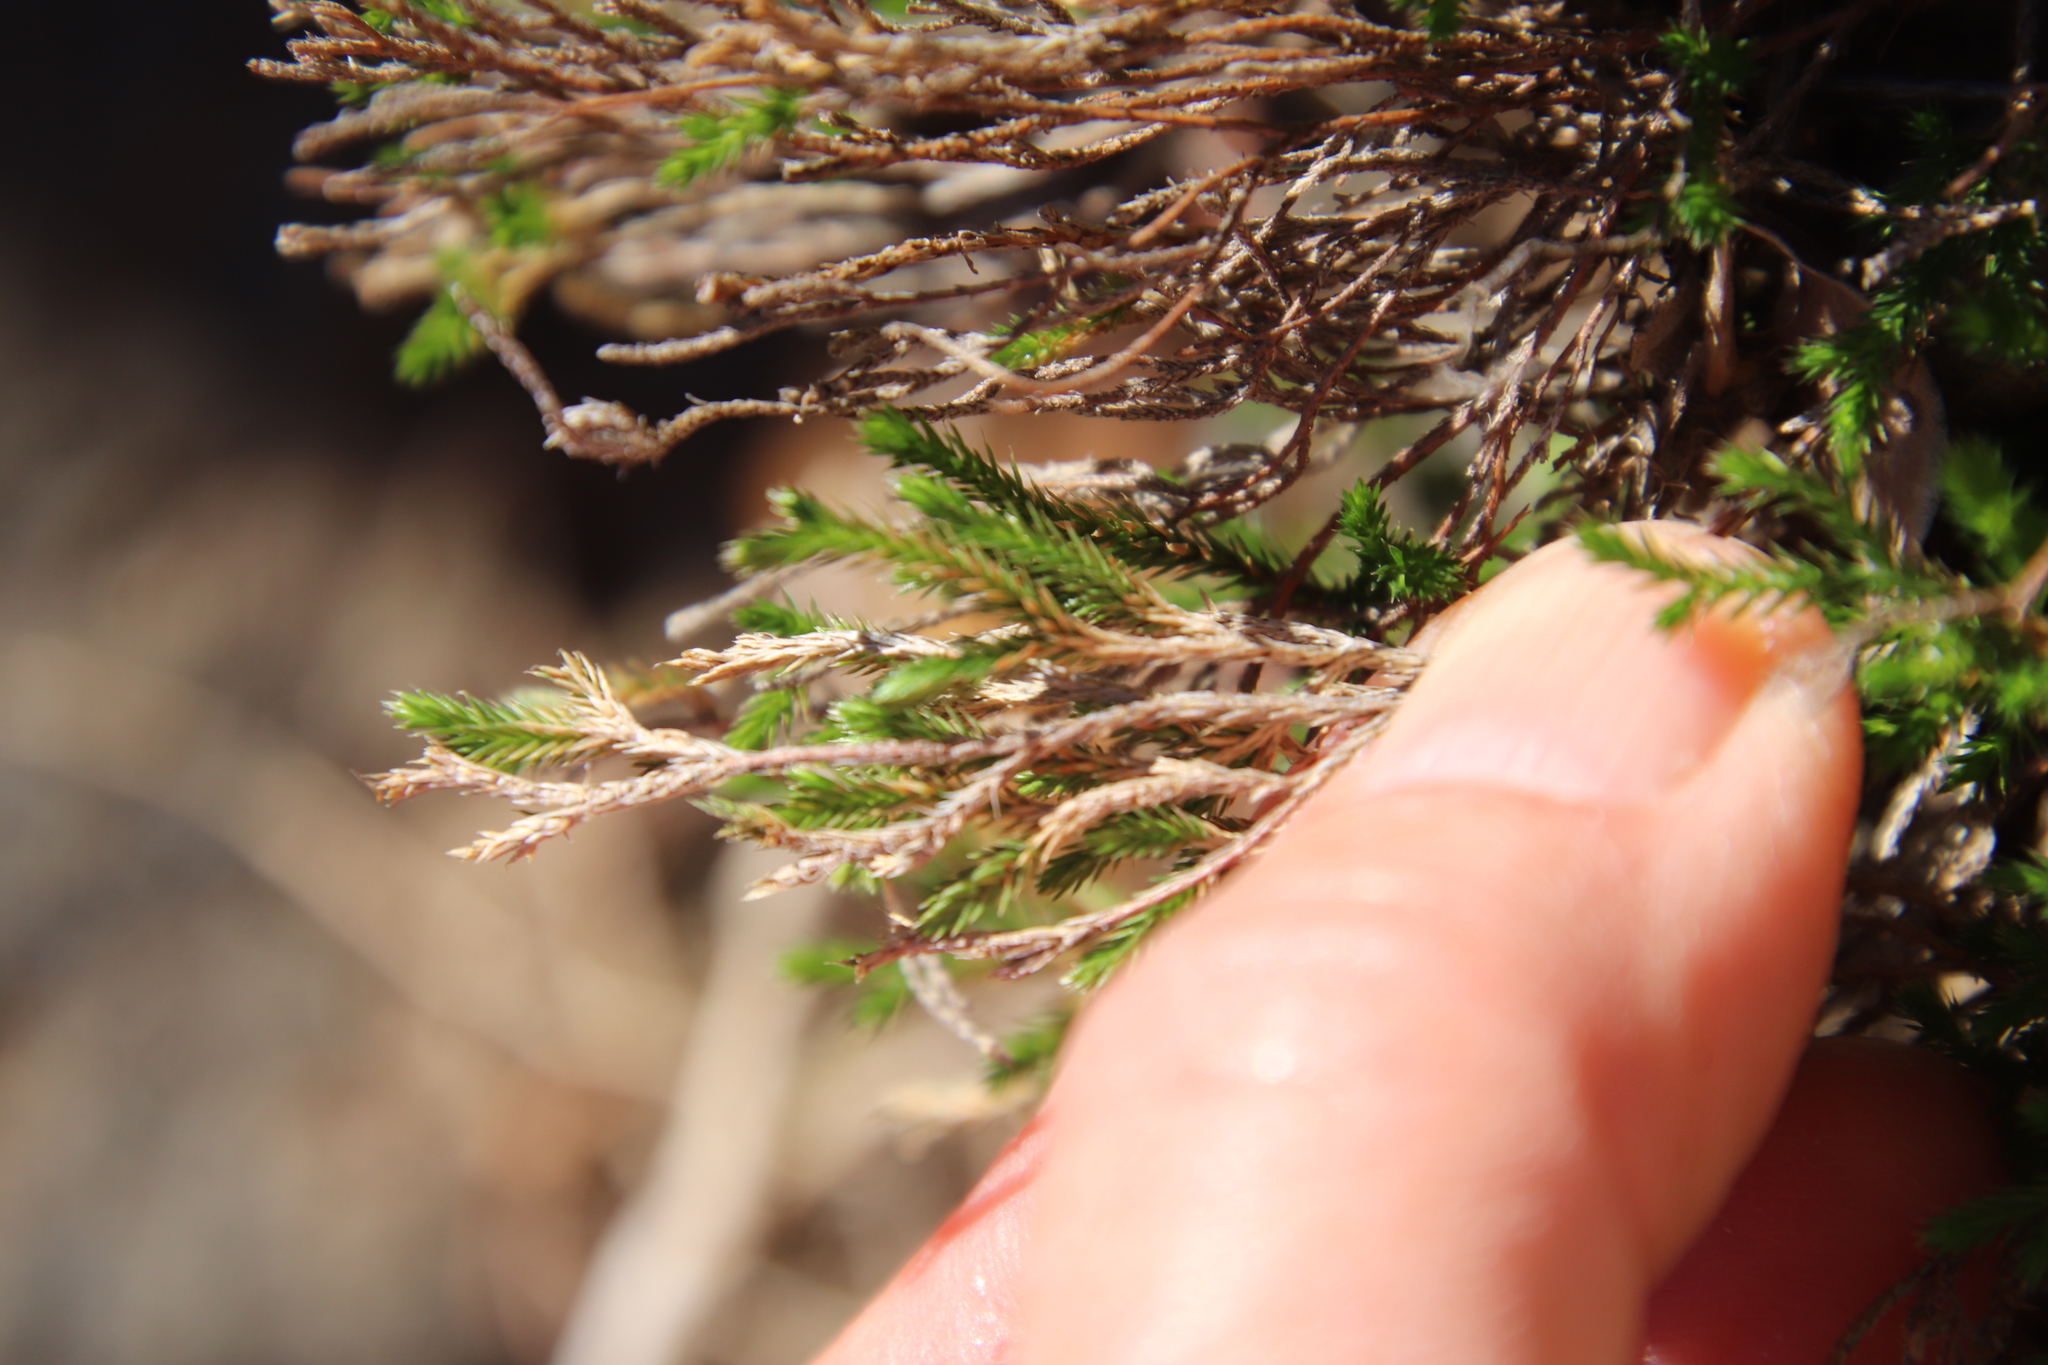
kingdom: Plantae
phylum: Tracheophyta
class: Lycopodiopsida
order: Selaginellales
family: Selaginellaceae
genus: Selaginella
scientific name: Selaginella bigelovii
